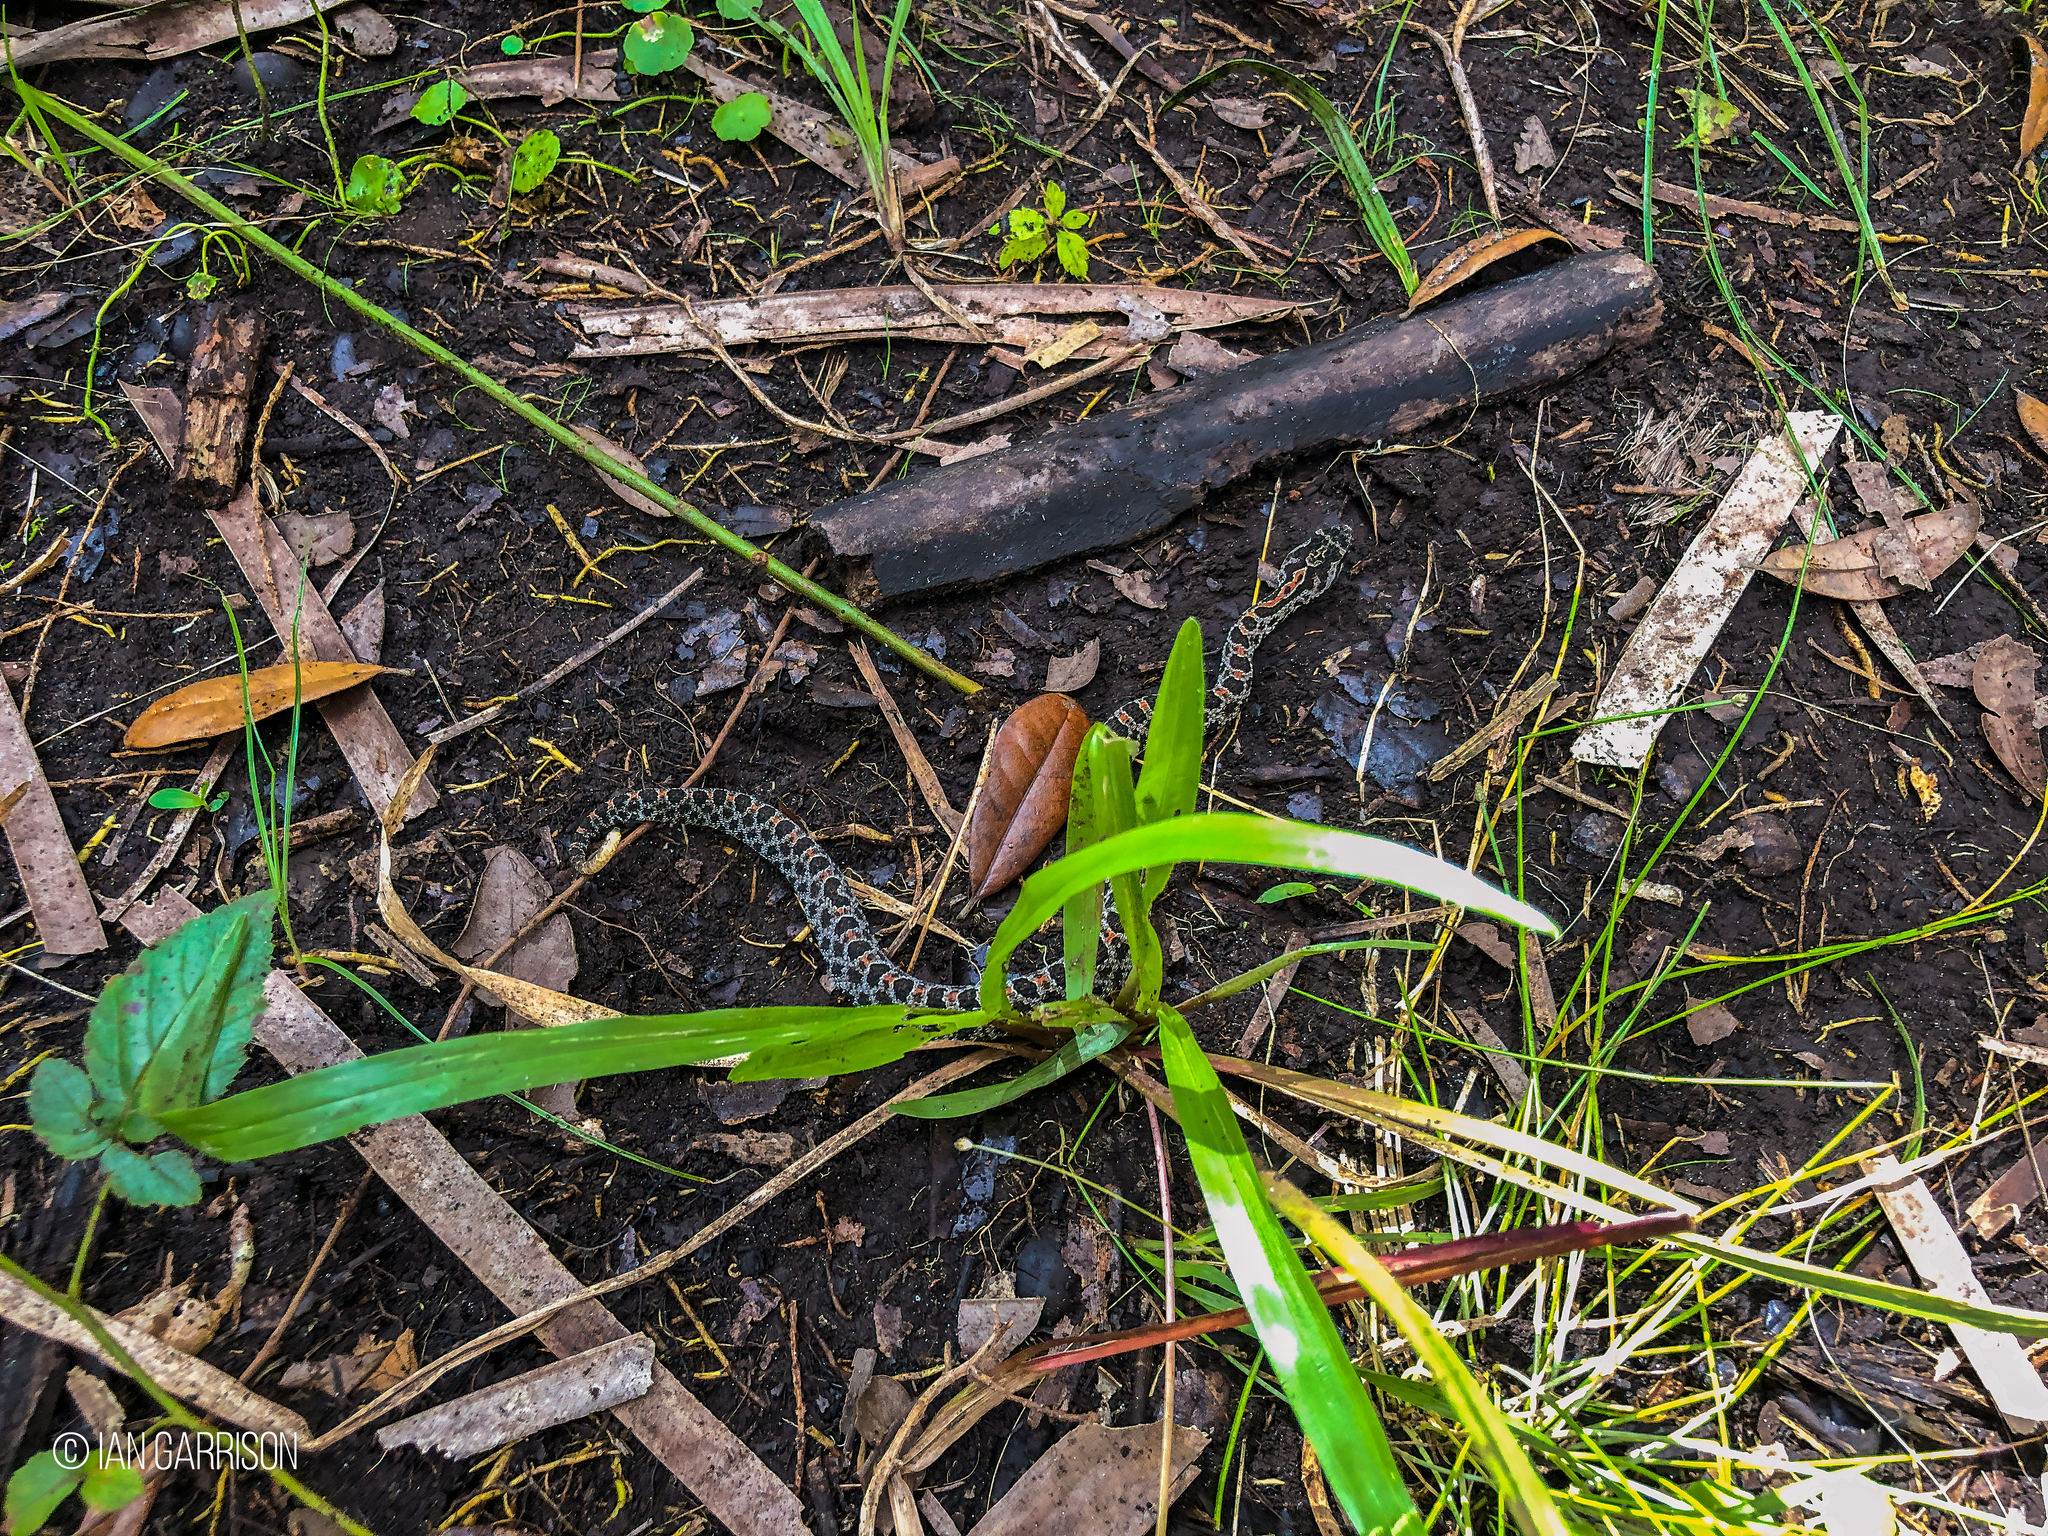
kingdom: Animalia
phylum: Chordata
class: Squamata
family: Viperidae
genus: Sistrurus
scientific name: Sistrurus miliarius
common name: Pygmy rattlesnake
